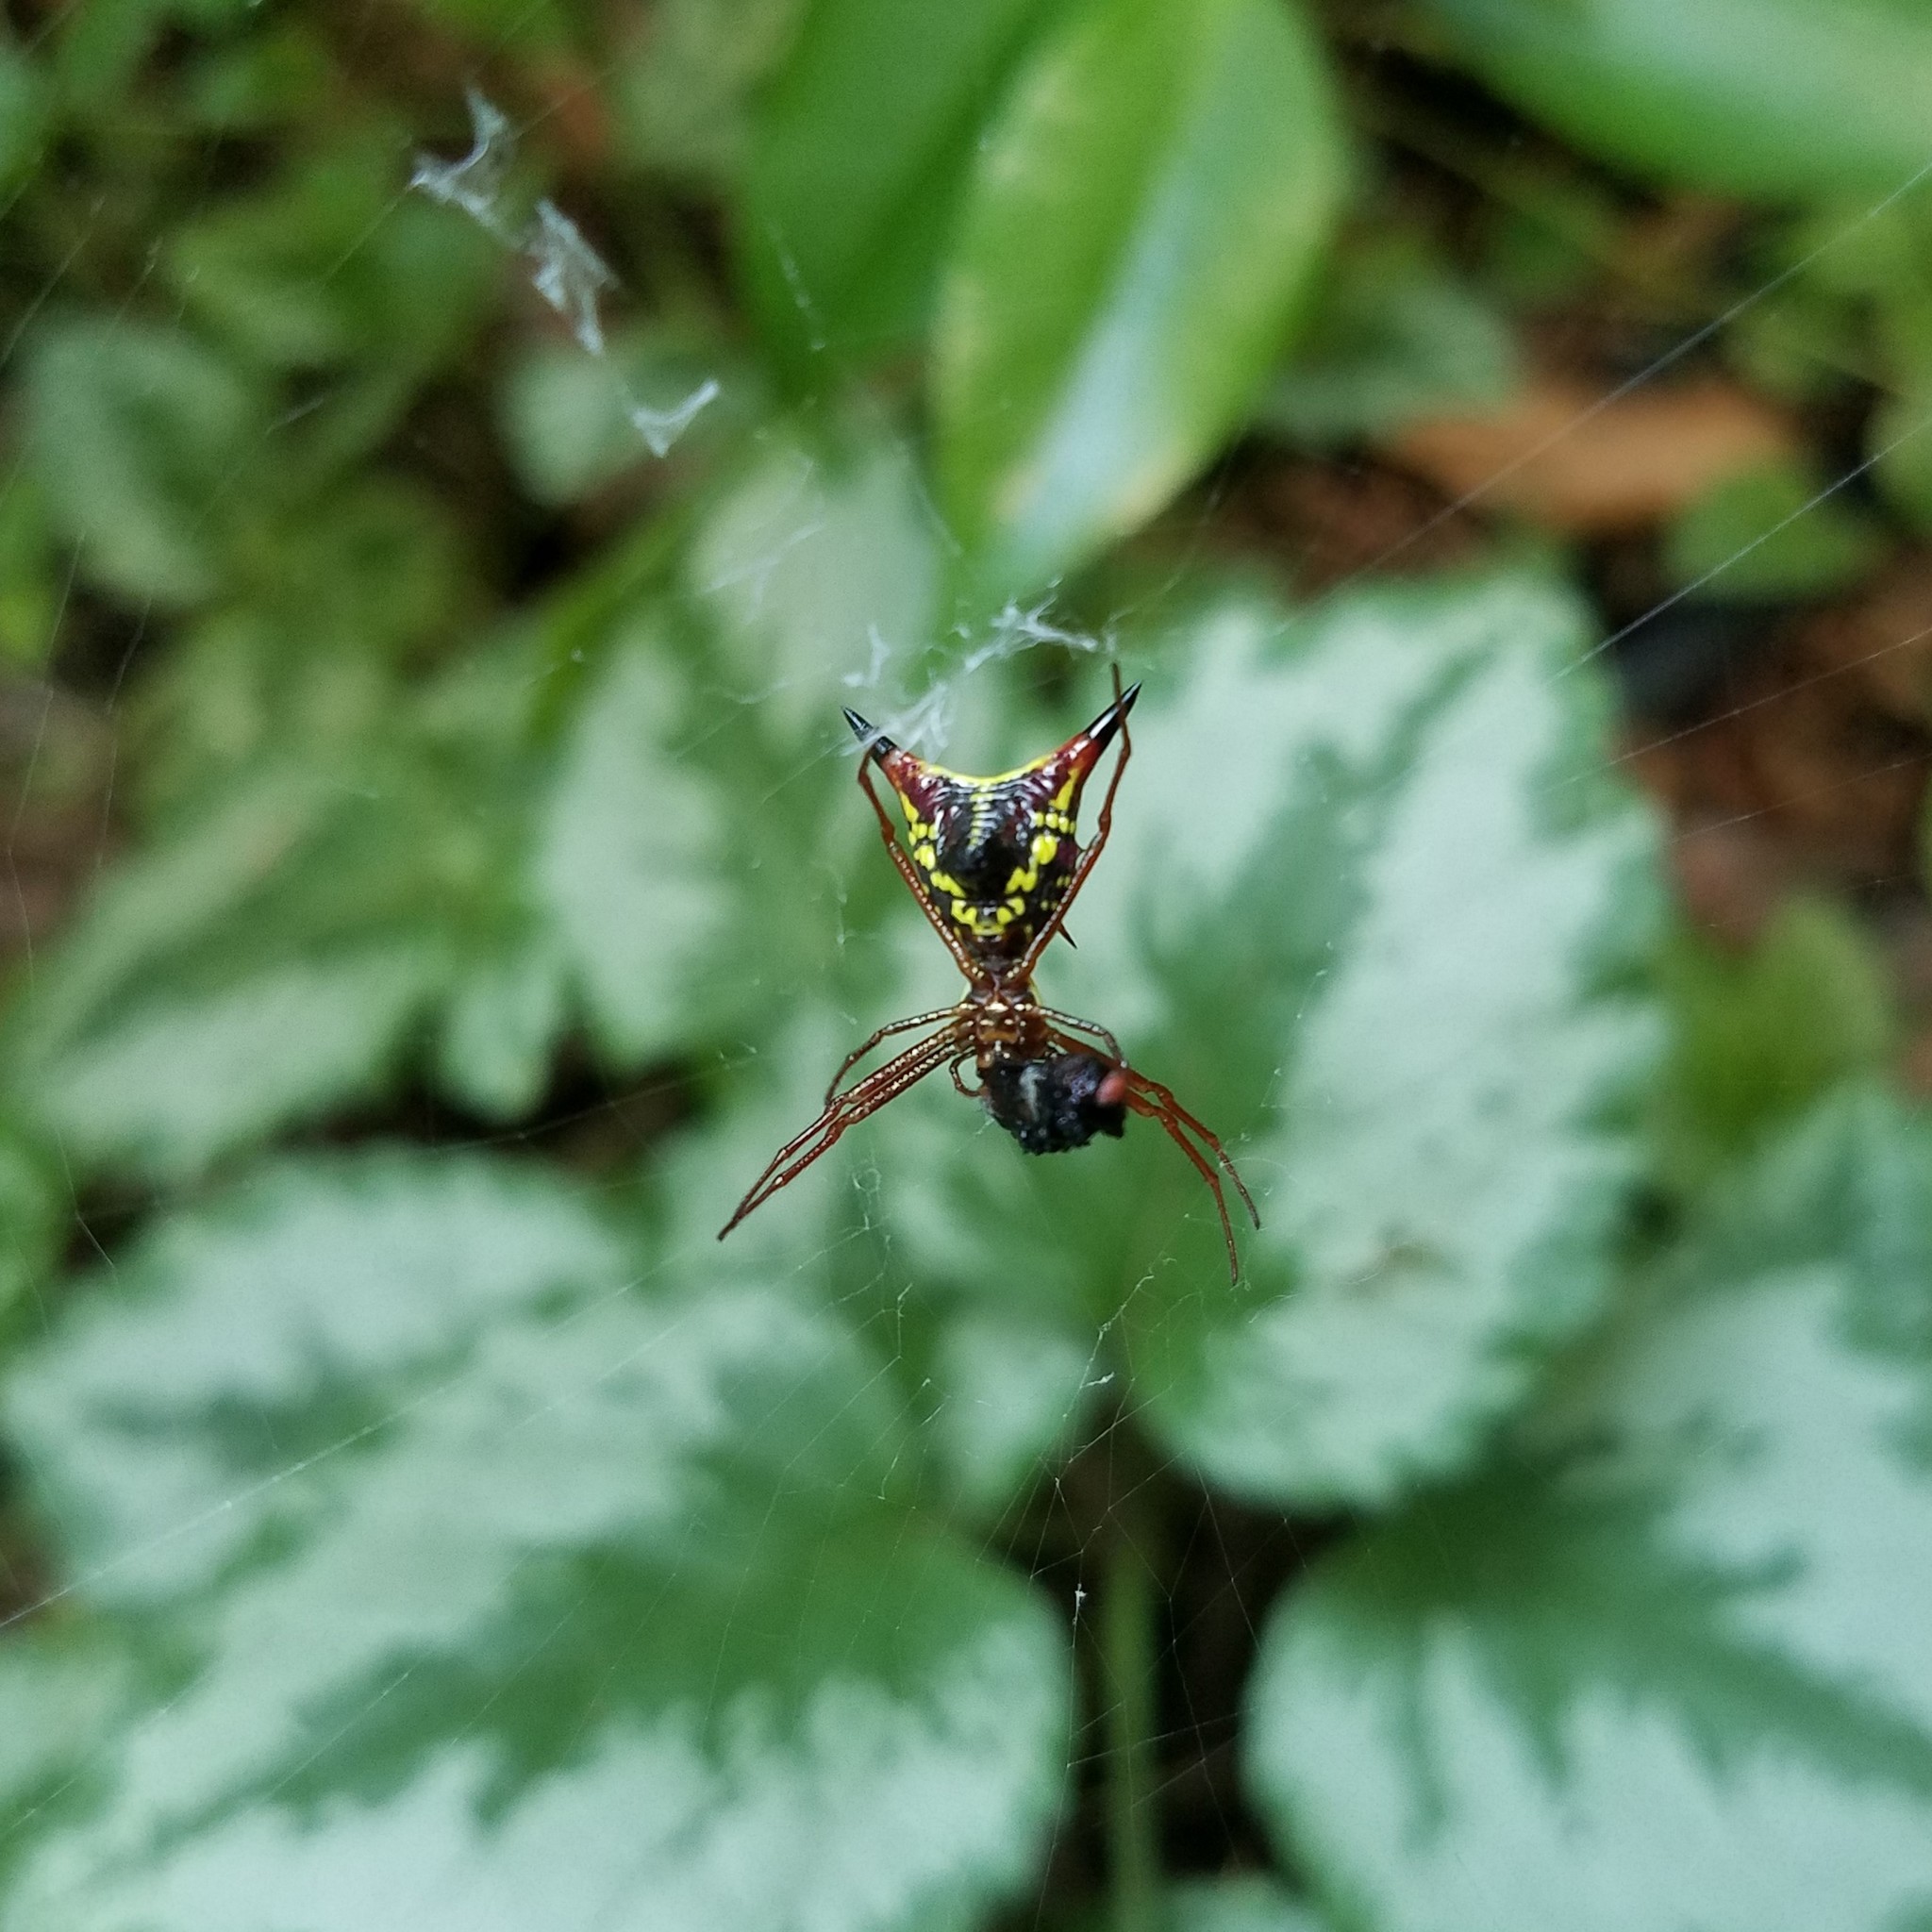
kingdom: Animalia
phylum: Arthropoda
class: Arachnida
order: Araneae
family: Araneidae
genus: Micrathena
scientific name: Micrathena sagittata
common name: Orb weavers
